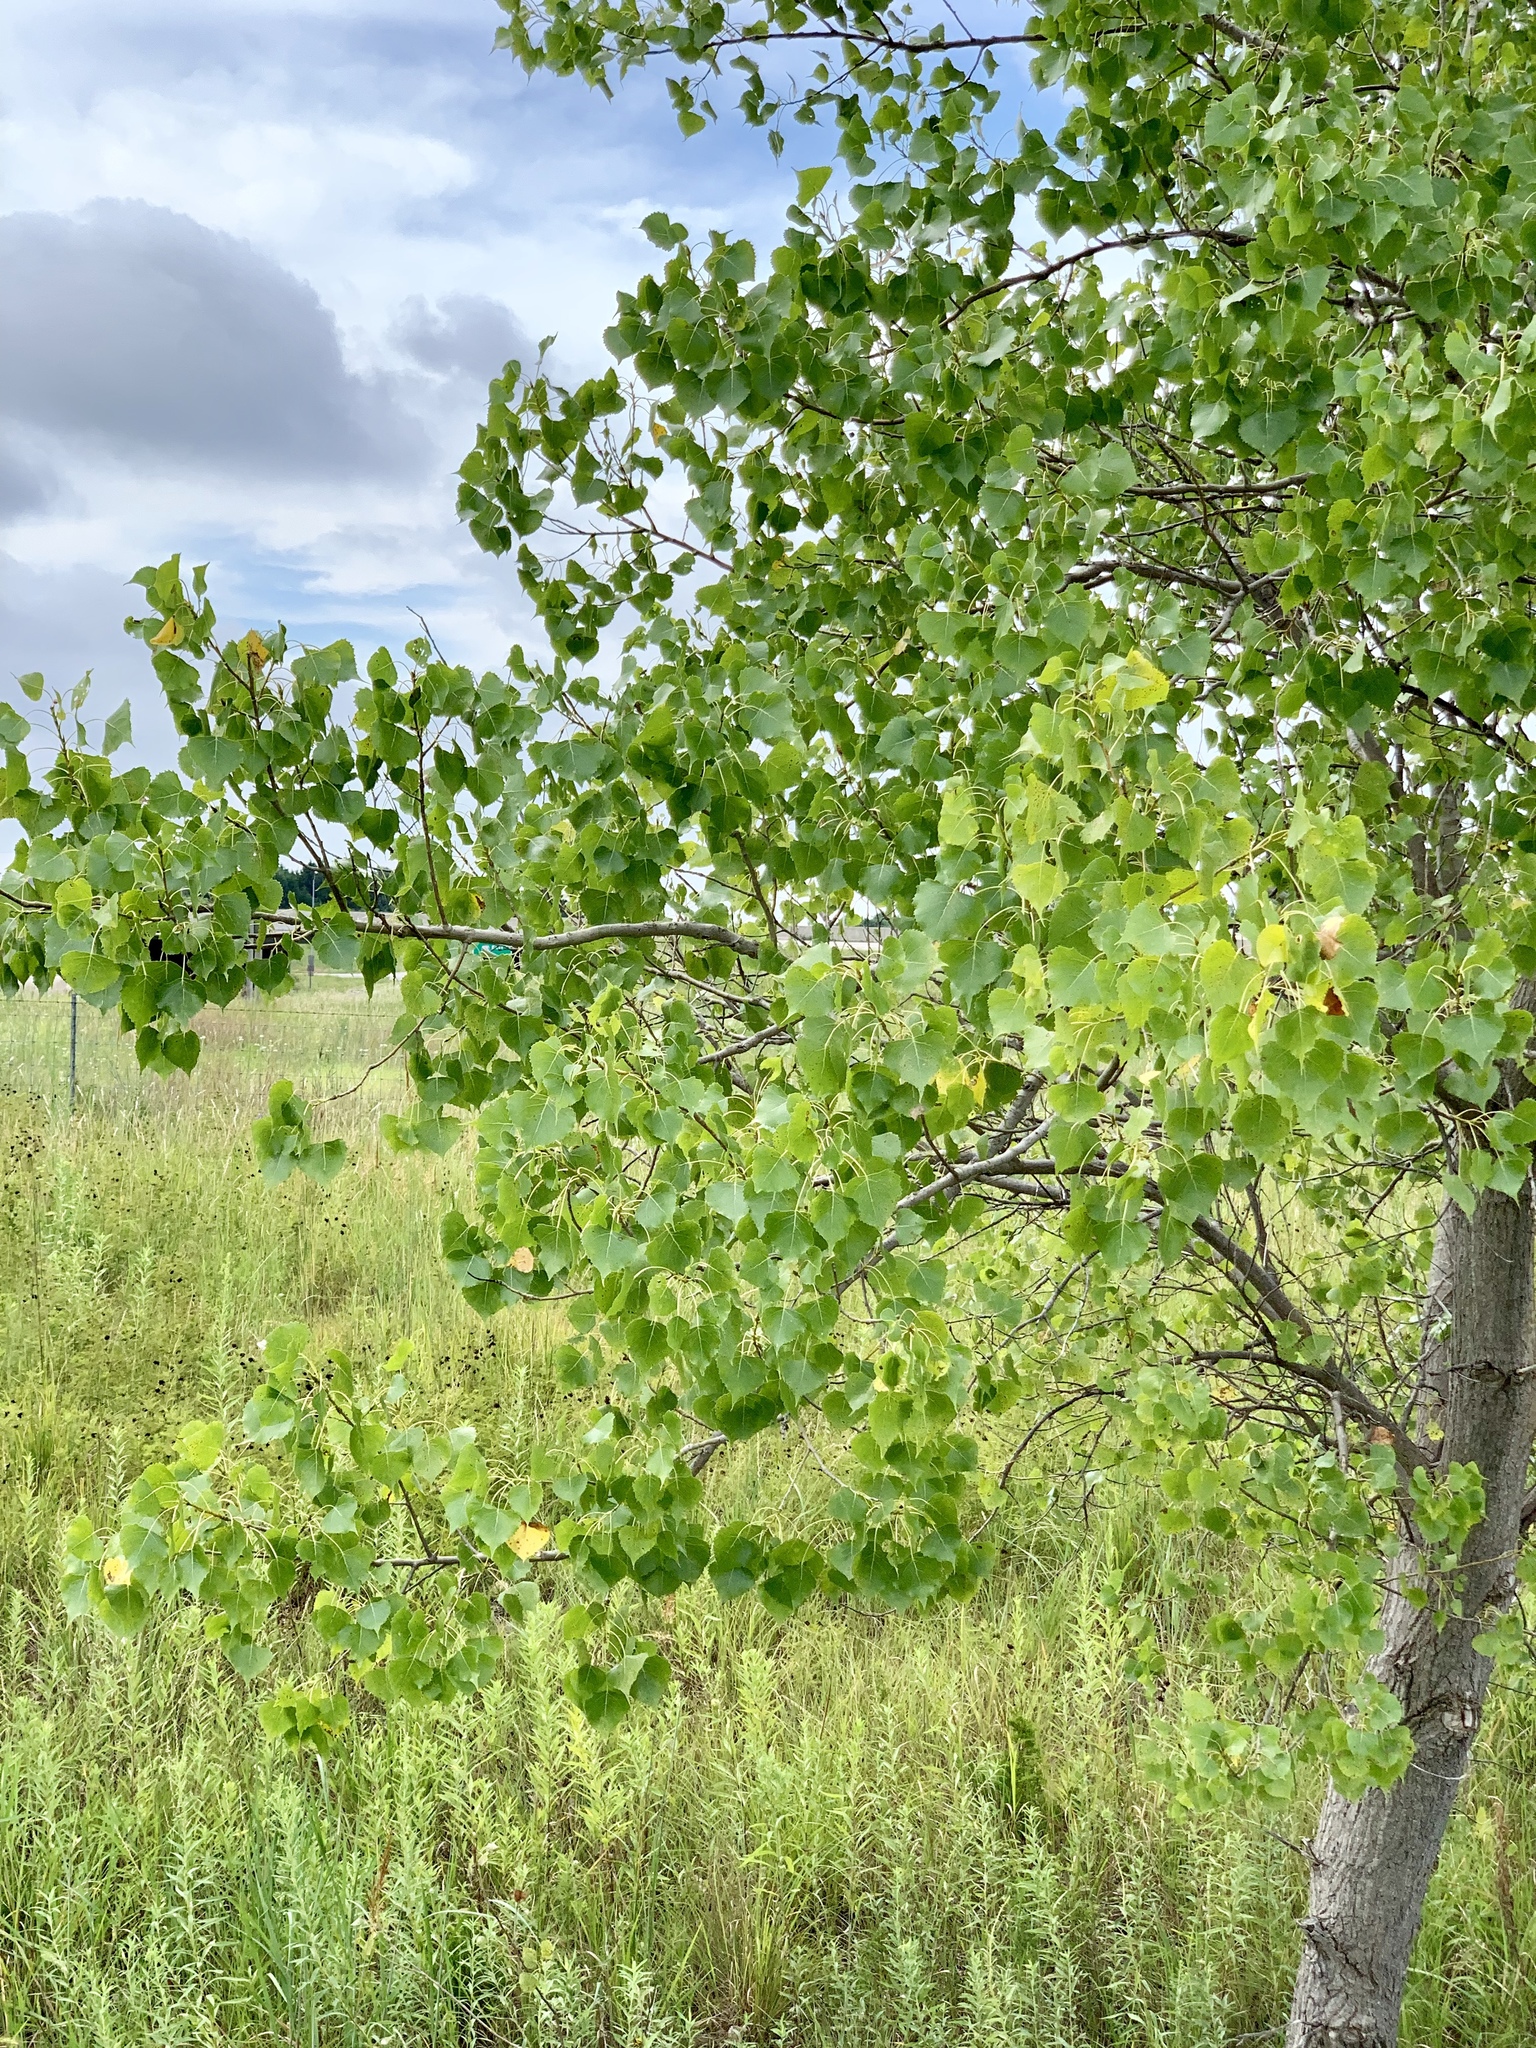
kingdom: Plantae
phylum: Tracheophyta
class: Magnoliopsida
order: Malpighiales
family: Salicaceae
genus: Populus
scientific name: Populus deltoides
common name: Eastern cottonwood
